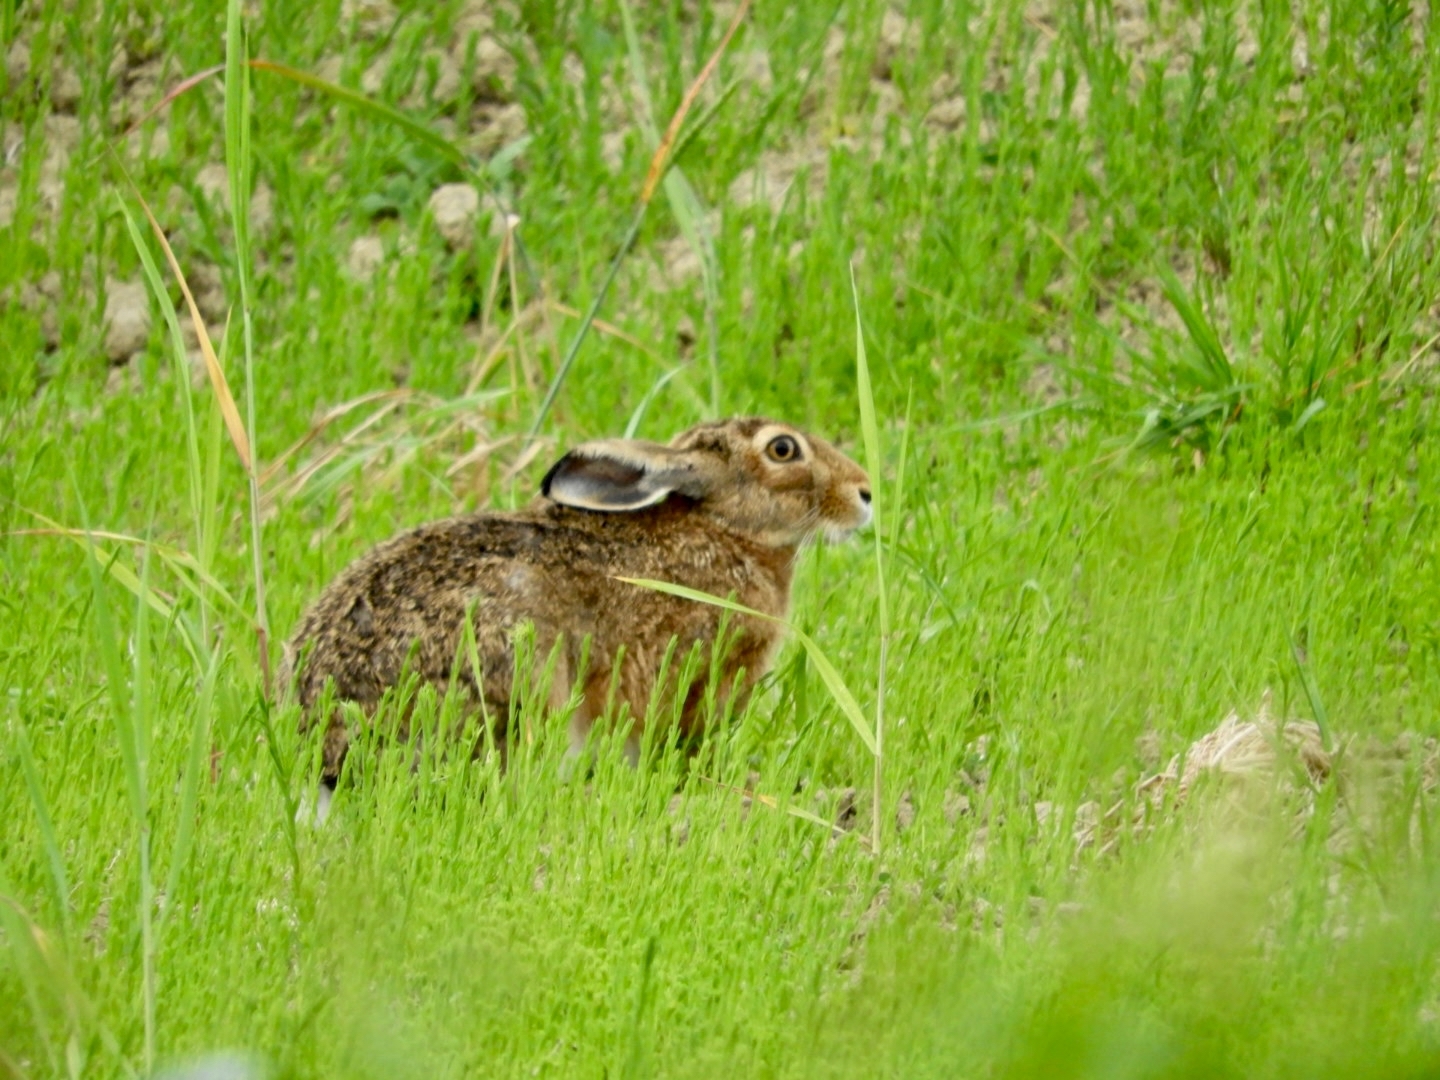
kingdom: Animalia
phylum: Chordata
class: Mammalia
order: Lagomorpha
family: Leporidae
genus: Lepus
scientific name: Lepus europaeus
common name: European hare
